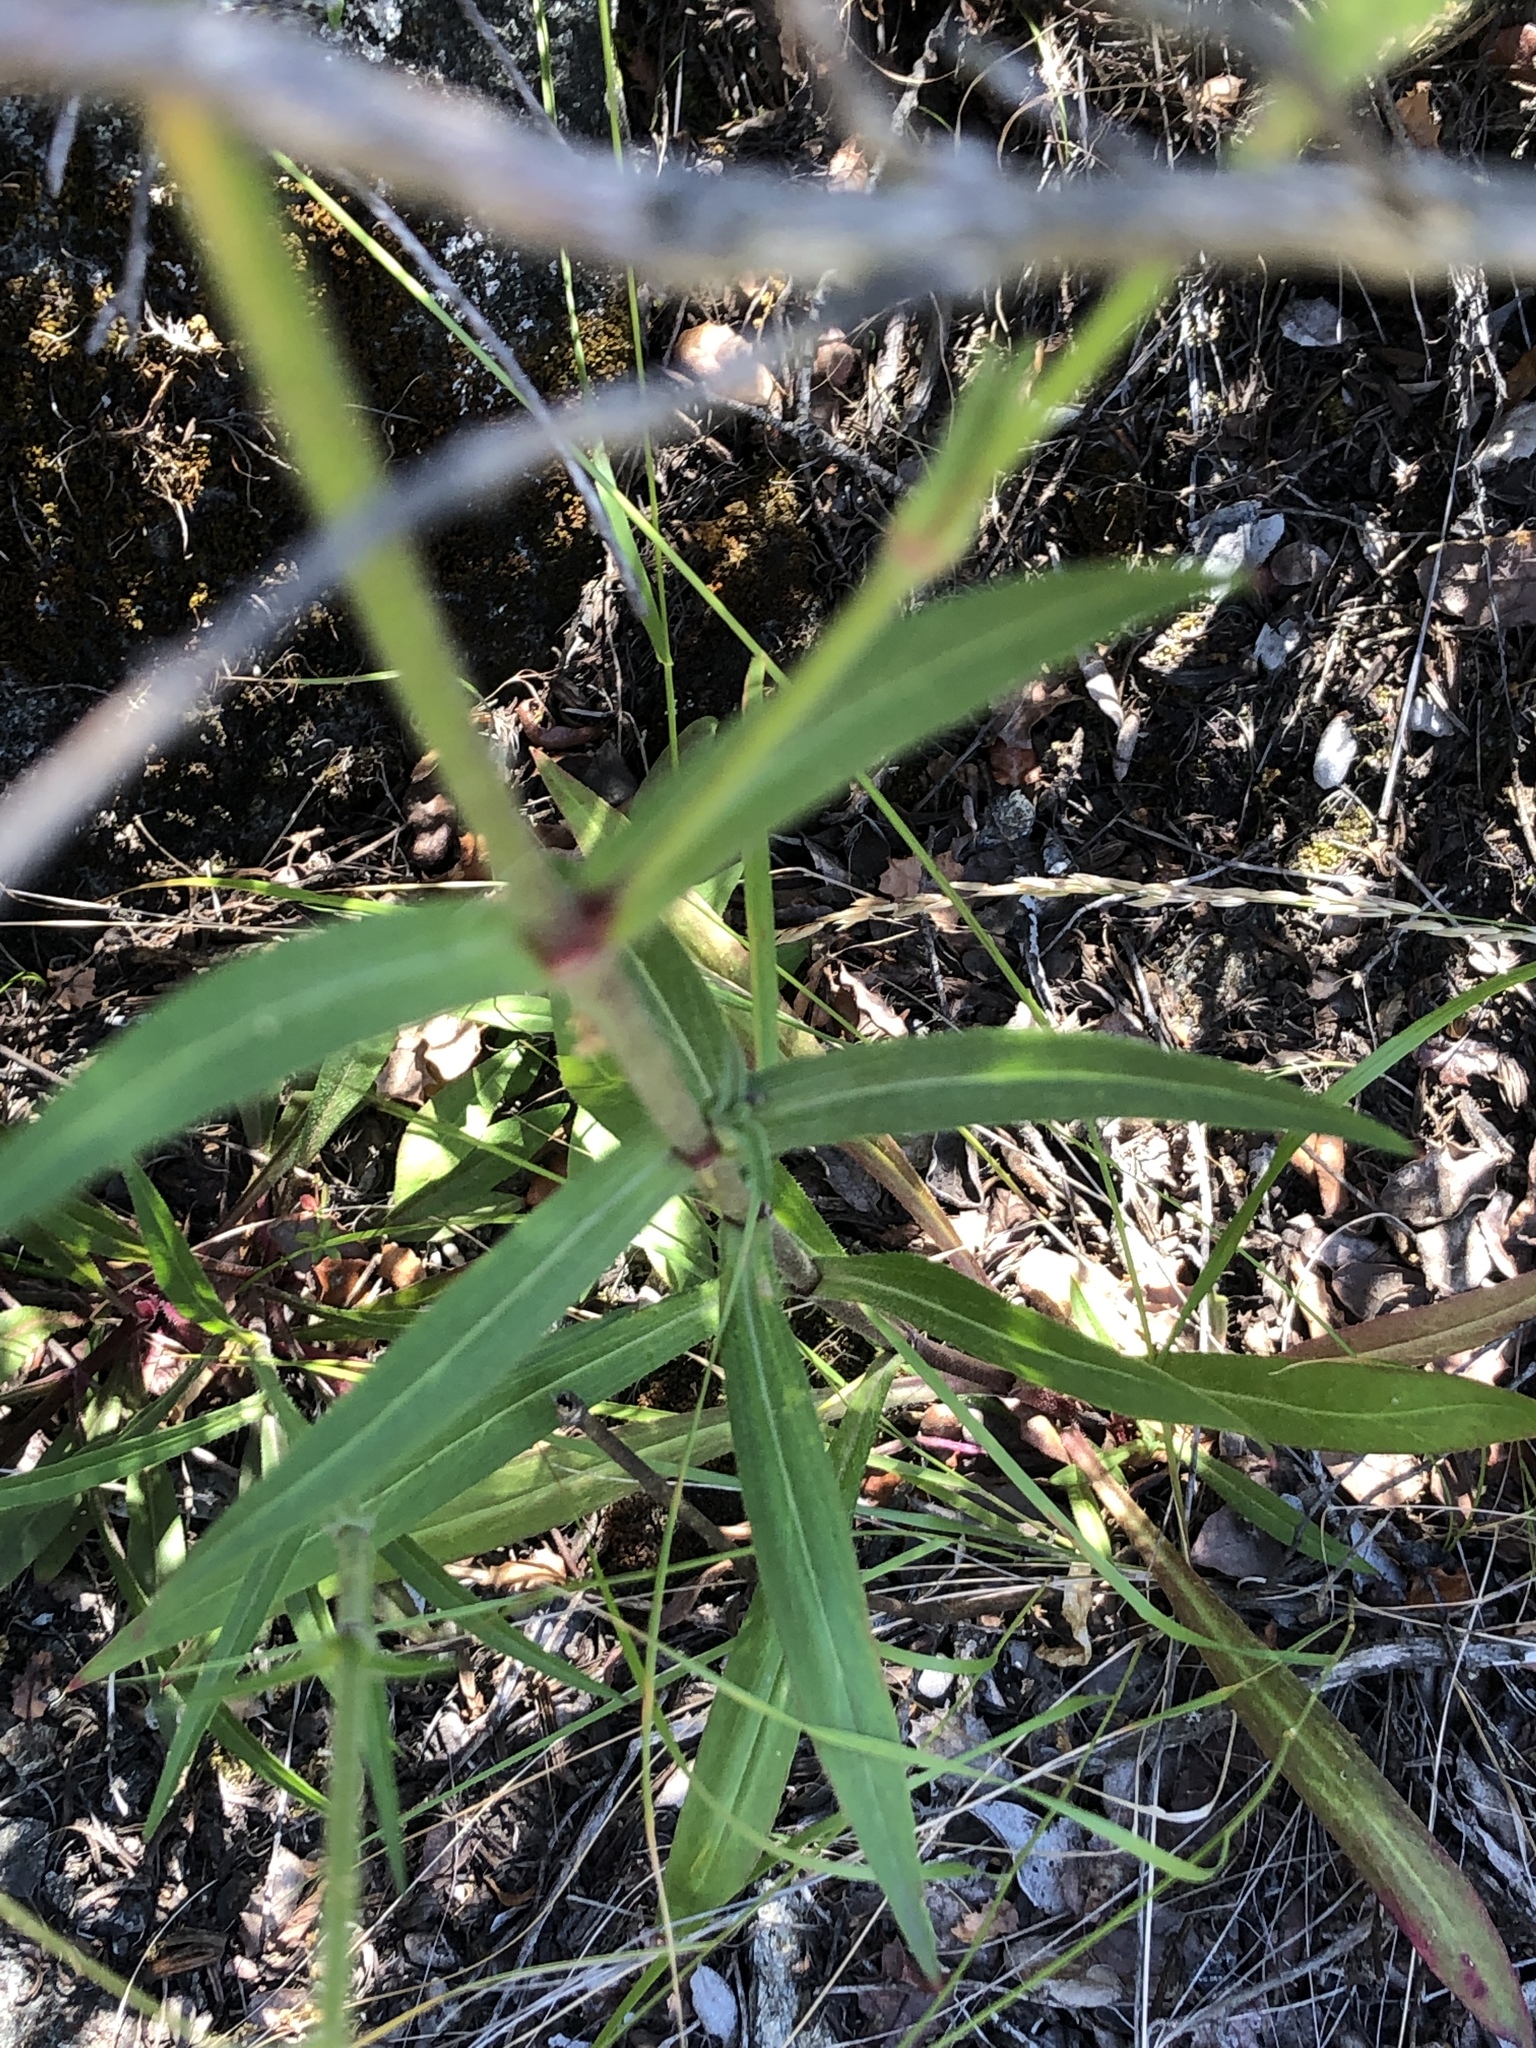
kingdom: Plantae
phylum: Tracheophyta
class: Magnoliopsida
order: Caryophyllales
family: Caryophyllaceae
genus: Silene
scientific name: Silene laciniata
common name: Indian-pink
